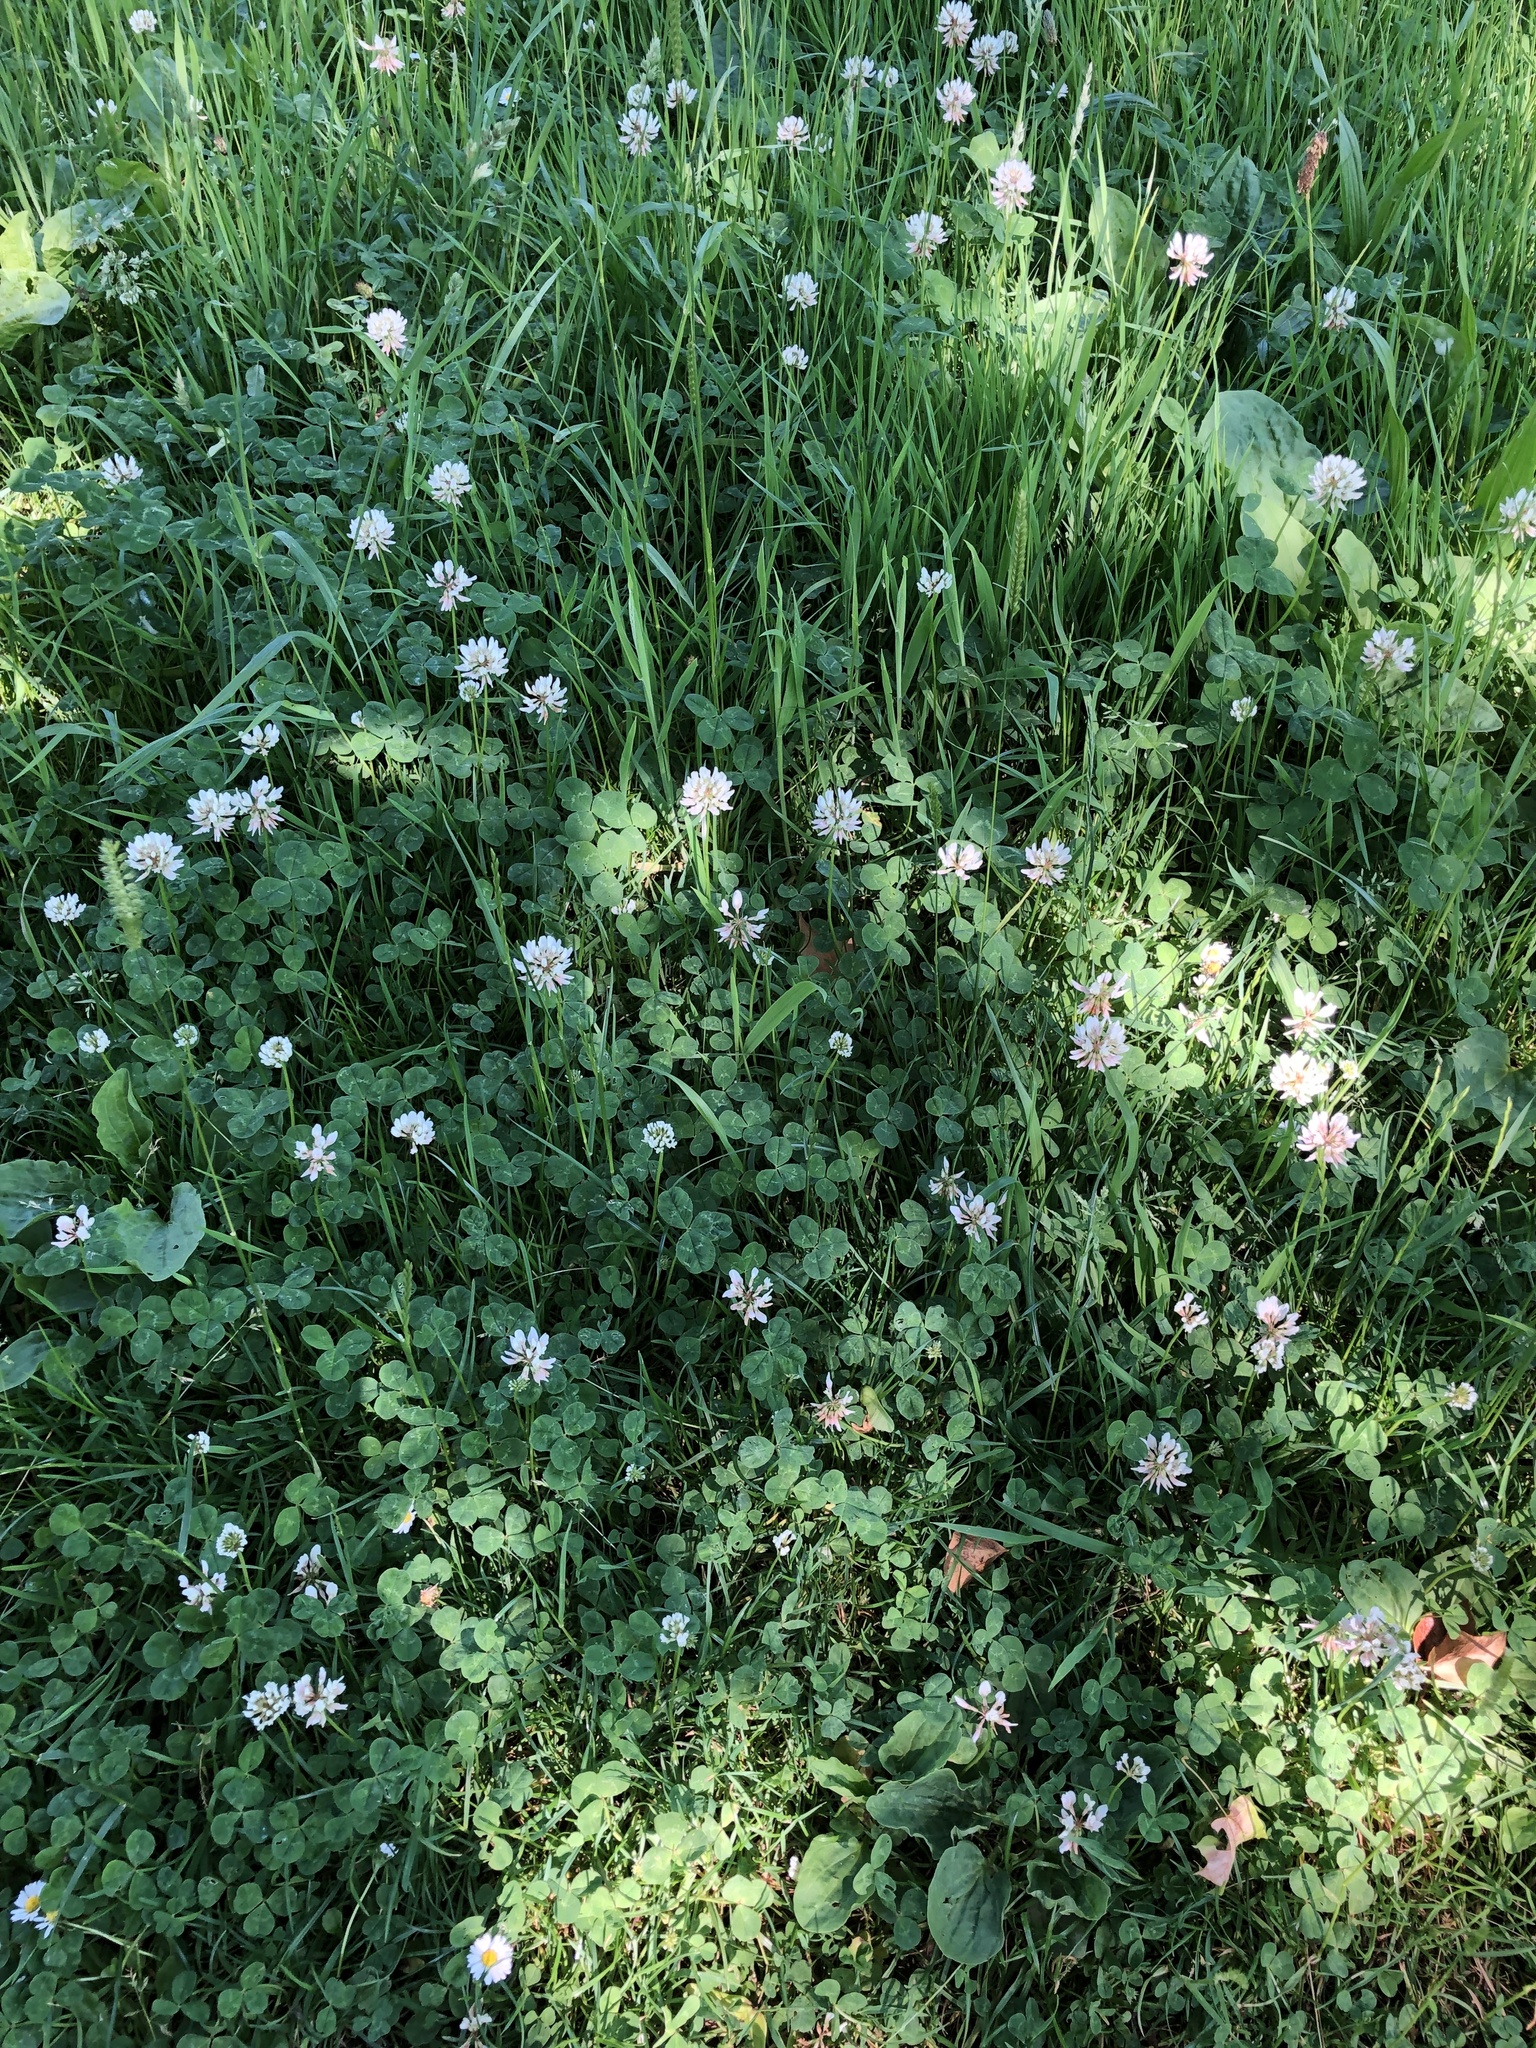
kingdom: Plantae
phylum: Tracheophyta
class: Magnoliopsida
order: Fabales
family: Fabaceae
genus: Trifolium
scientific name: Trifolium repens
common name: White clover
